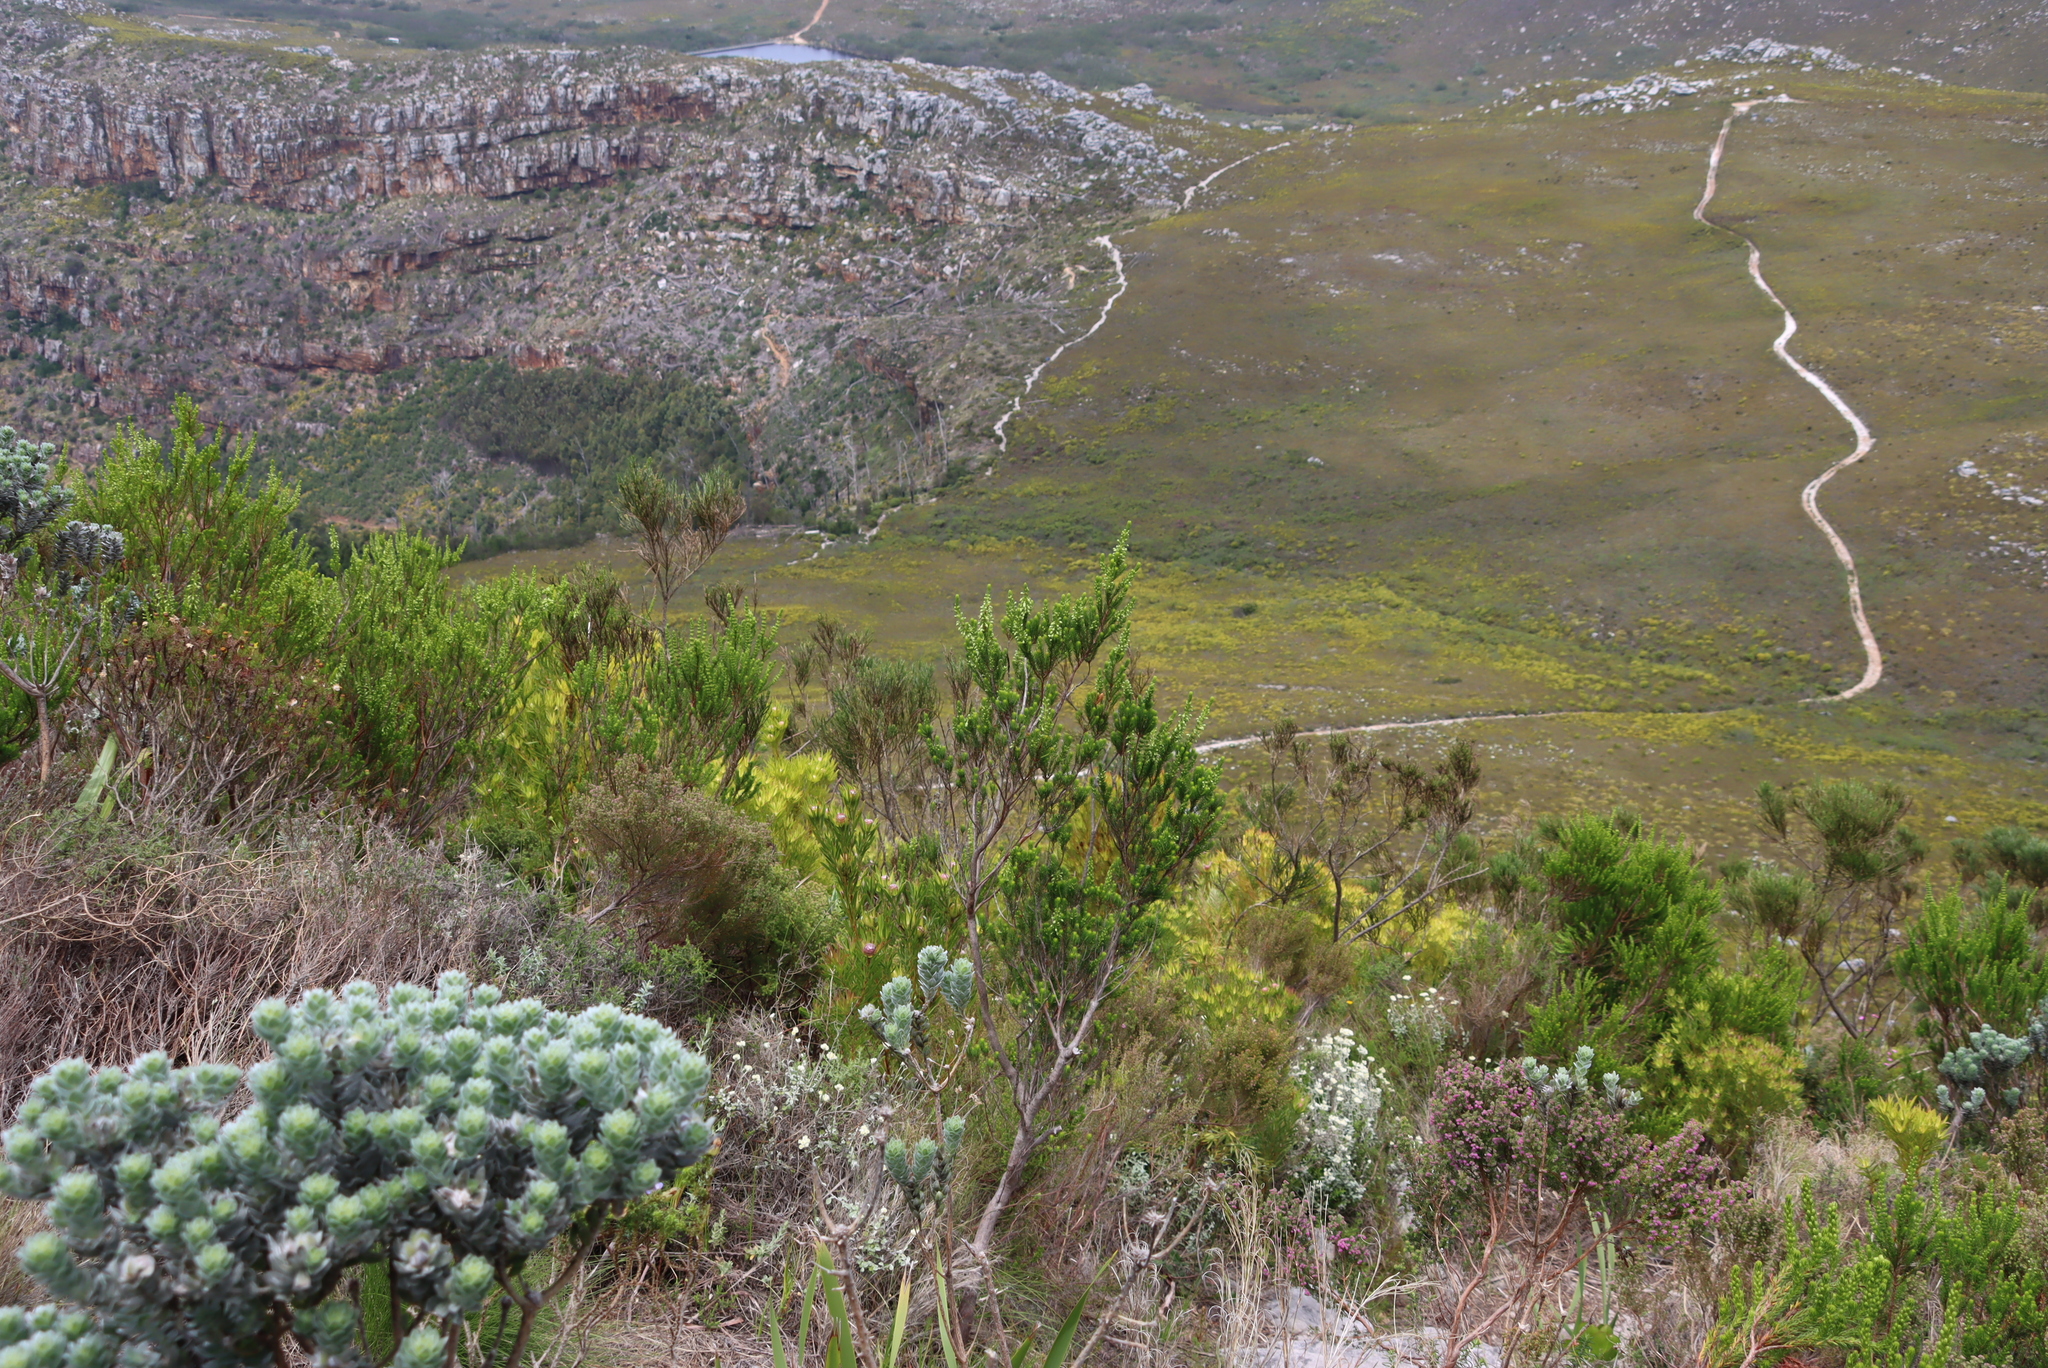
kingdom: Plantae
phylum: Tracheophyta
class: Magnoliopsida
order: Ericales
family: Ericaceae
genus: Erica
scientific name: Erica mammosa
